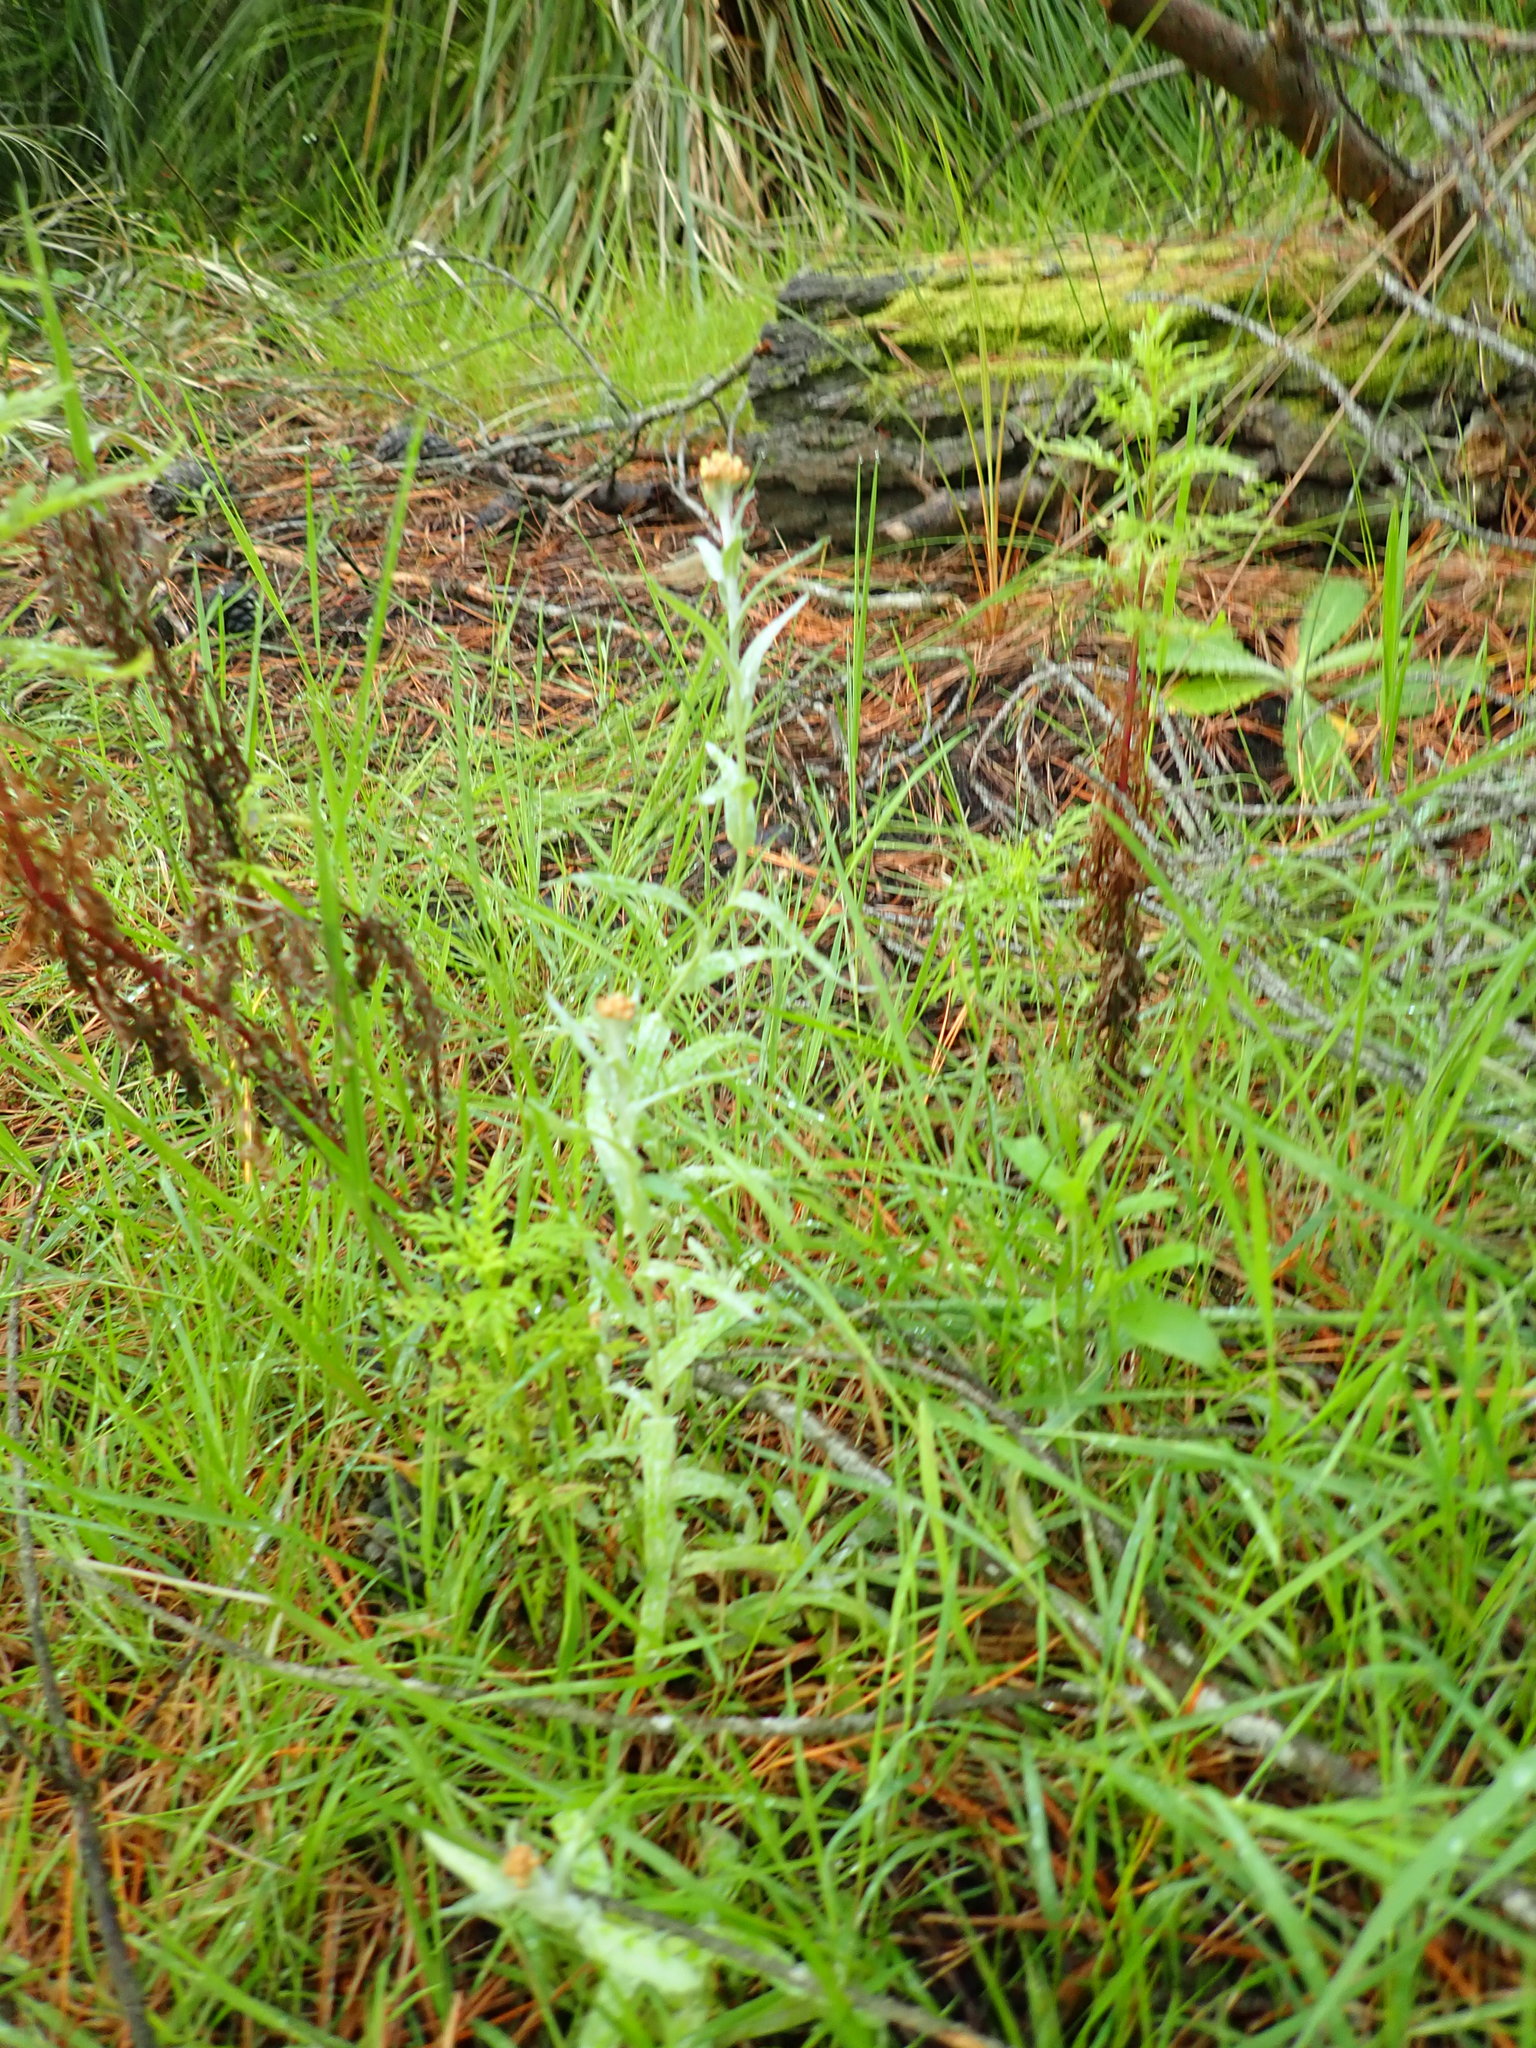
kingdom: Plantae
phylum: Tracheophyta
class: Magnoliopsida
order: Asterales
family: Asteraceae
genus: Helichrysum
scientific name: Helichrysum luteoalbum
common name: Daisy
